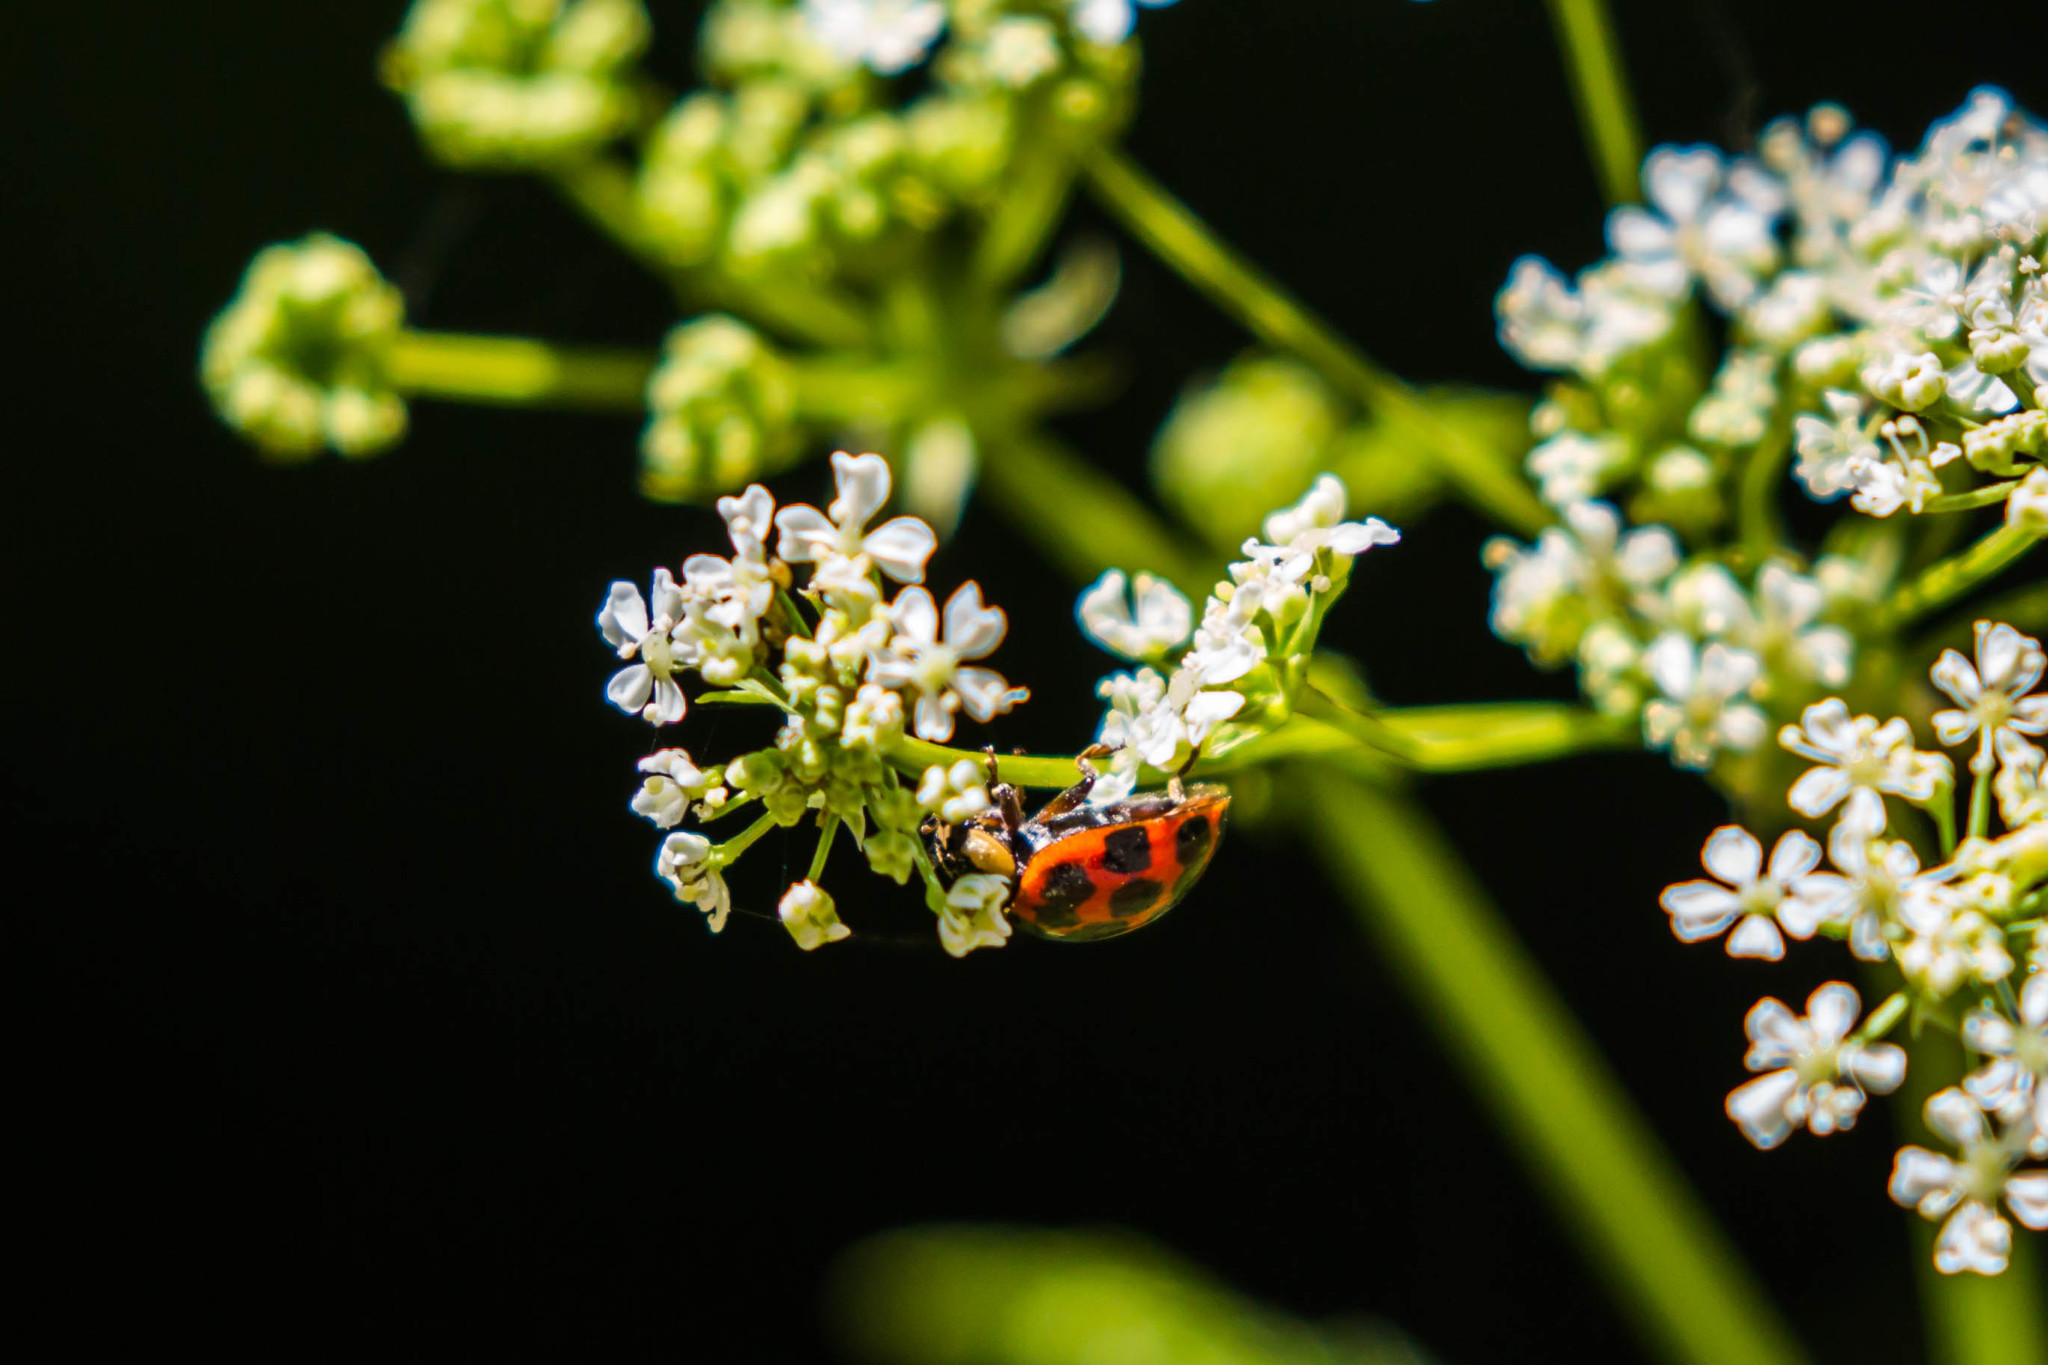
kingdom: Animalia
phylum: Arthropoda
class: Insecta
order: Coleoptera
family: Coccinellidae
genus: Harmonia
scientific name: Harmonia axyridis
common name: Harlequin ladybird
